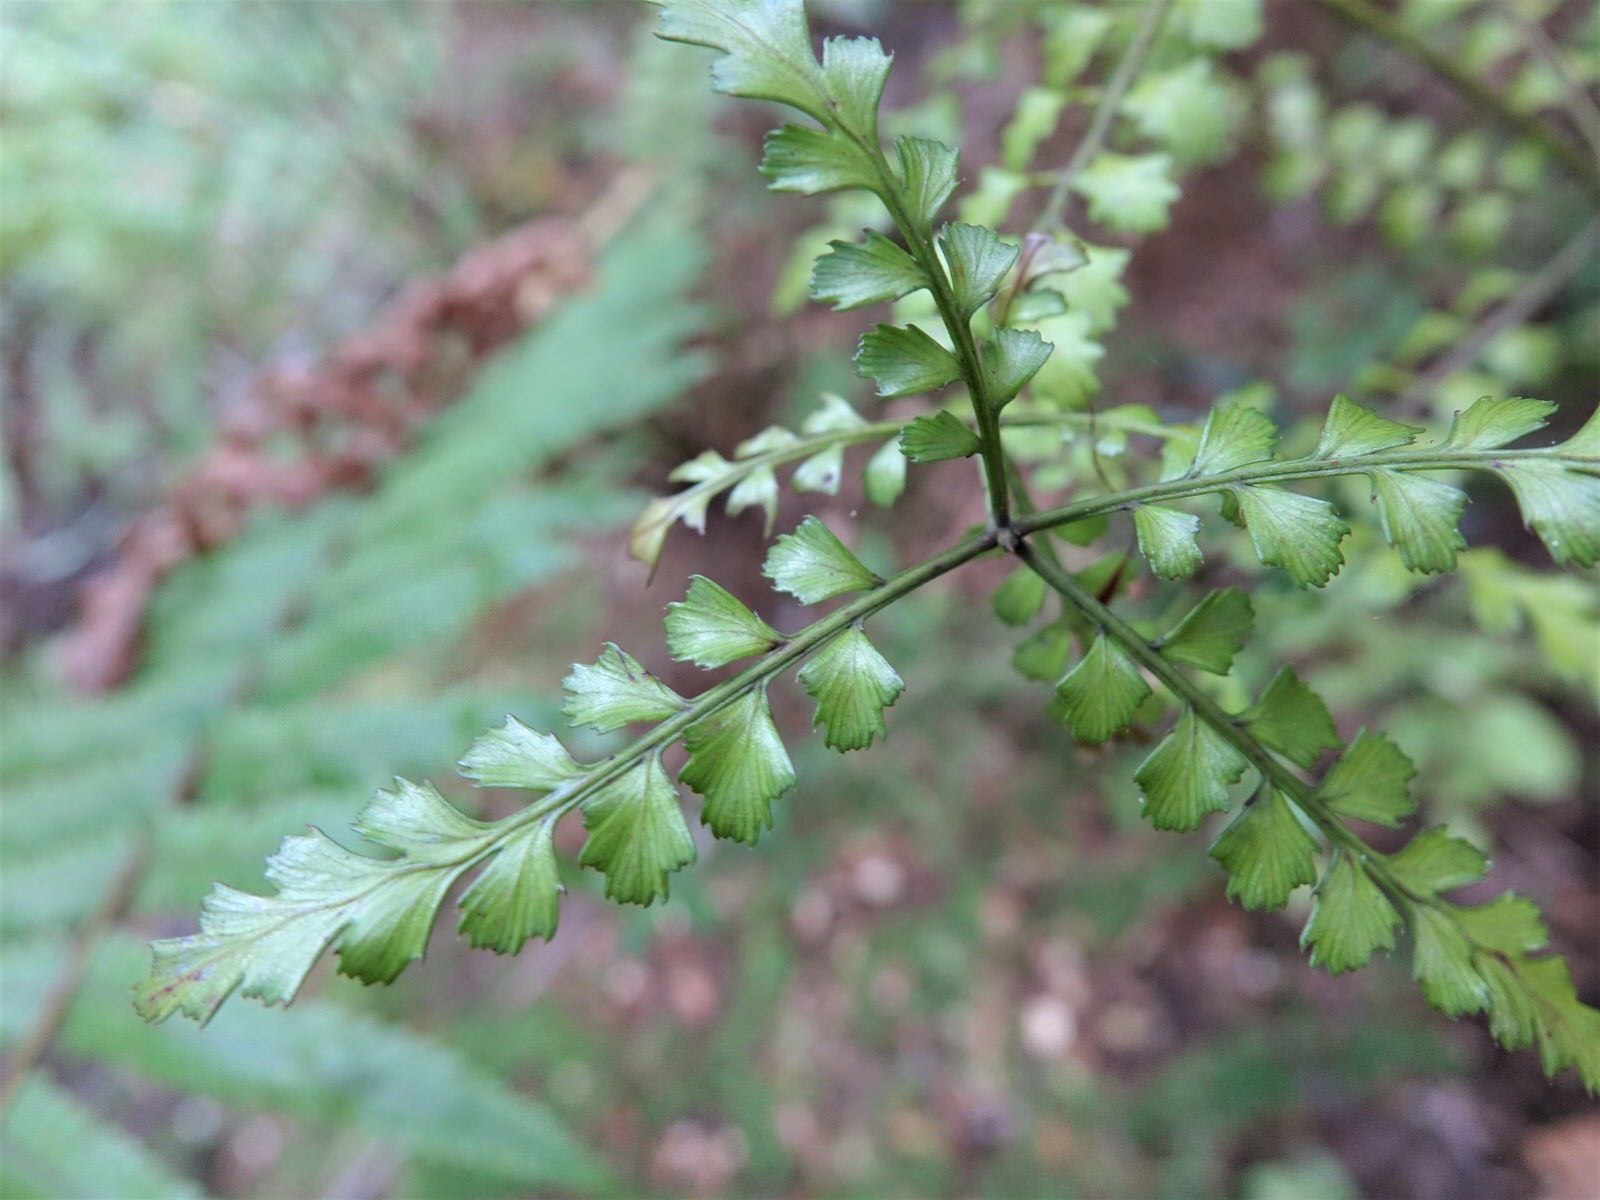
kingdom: Plantae
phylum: Tracheophyta
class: Pinopsida
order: Pinales
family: Phyllocladaceae
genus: Phyllocladus
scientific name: Phyllocladus trichomanoides
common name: Celery pine
